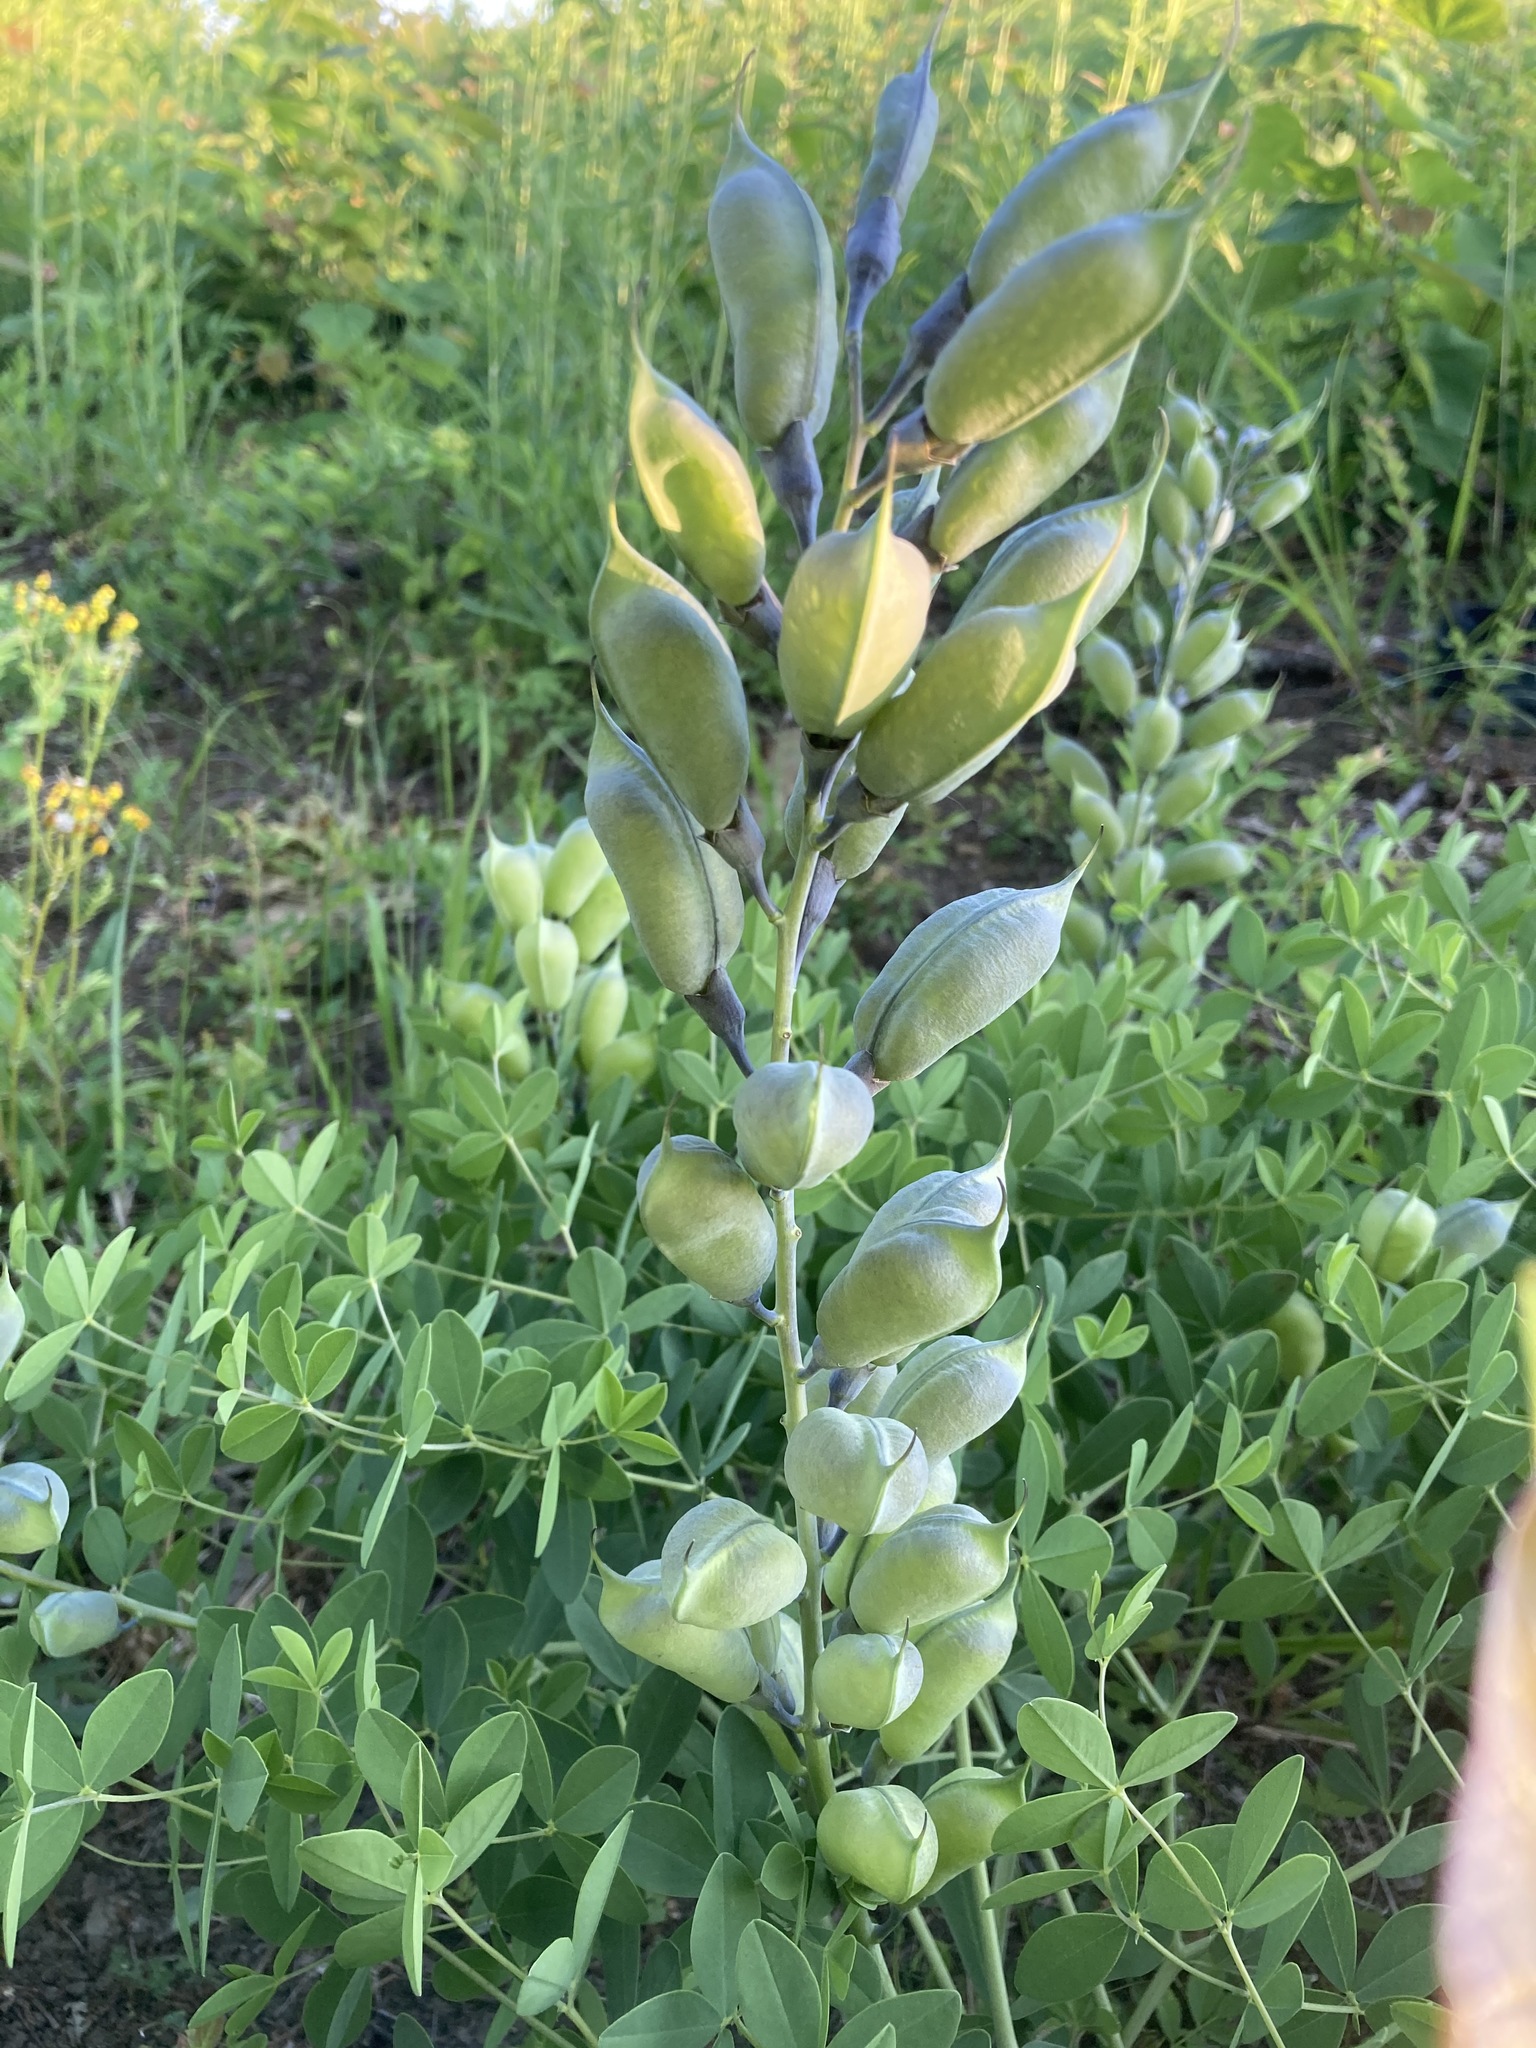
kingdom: Plantae
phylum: Tracheophyta
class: Magnoliopsida
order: Fabales
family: Fabaceae
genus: Baptisia
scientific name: Baptisia australis
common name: Blue false indigo
